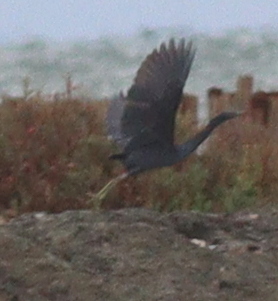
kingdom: Animalia
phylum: Chordata
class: Aves
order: Pelecaniformes
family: Ardeidae
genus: Egretta
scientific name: Egretta sacra
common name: Pacific reef heron
